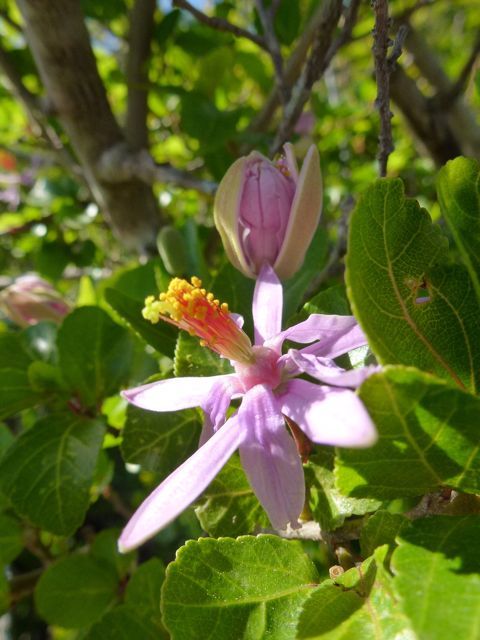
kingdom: Plantae
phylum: Tracheophyta
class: Magnoliopsida
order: Malvales
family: Malvaceae
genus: Grewia
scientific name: Grewia occidentalis
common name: Crossberry
